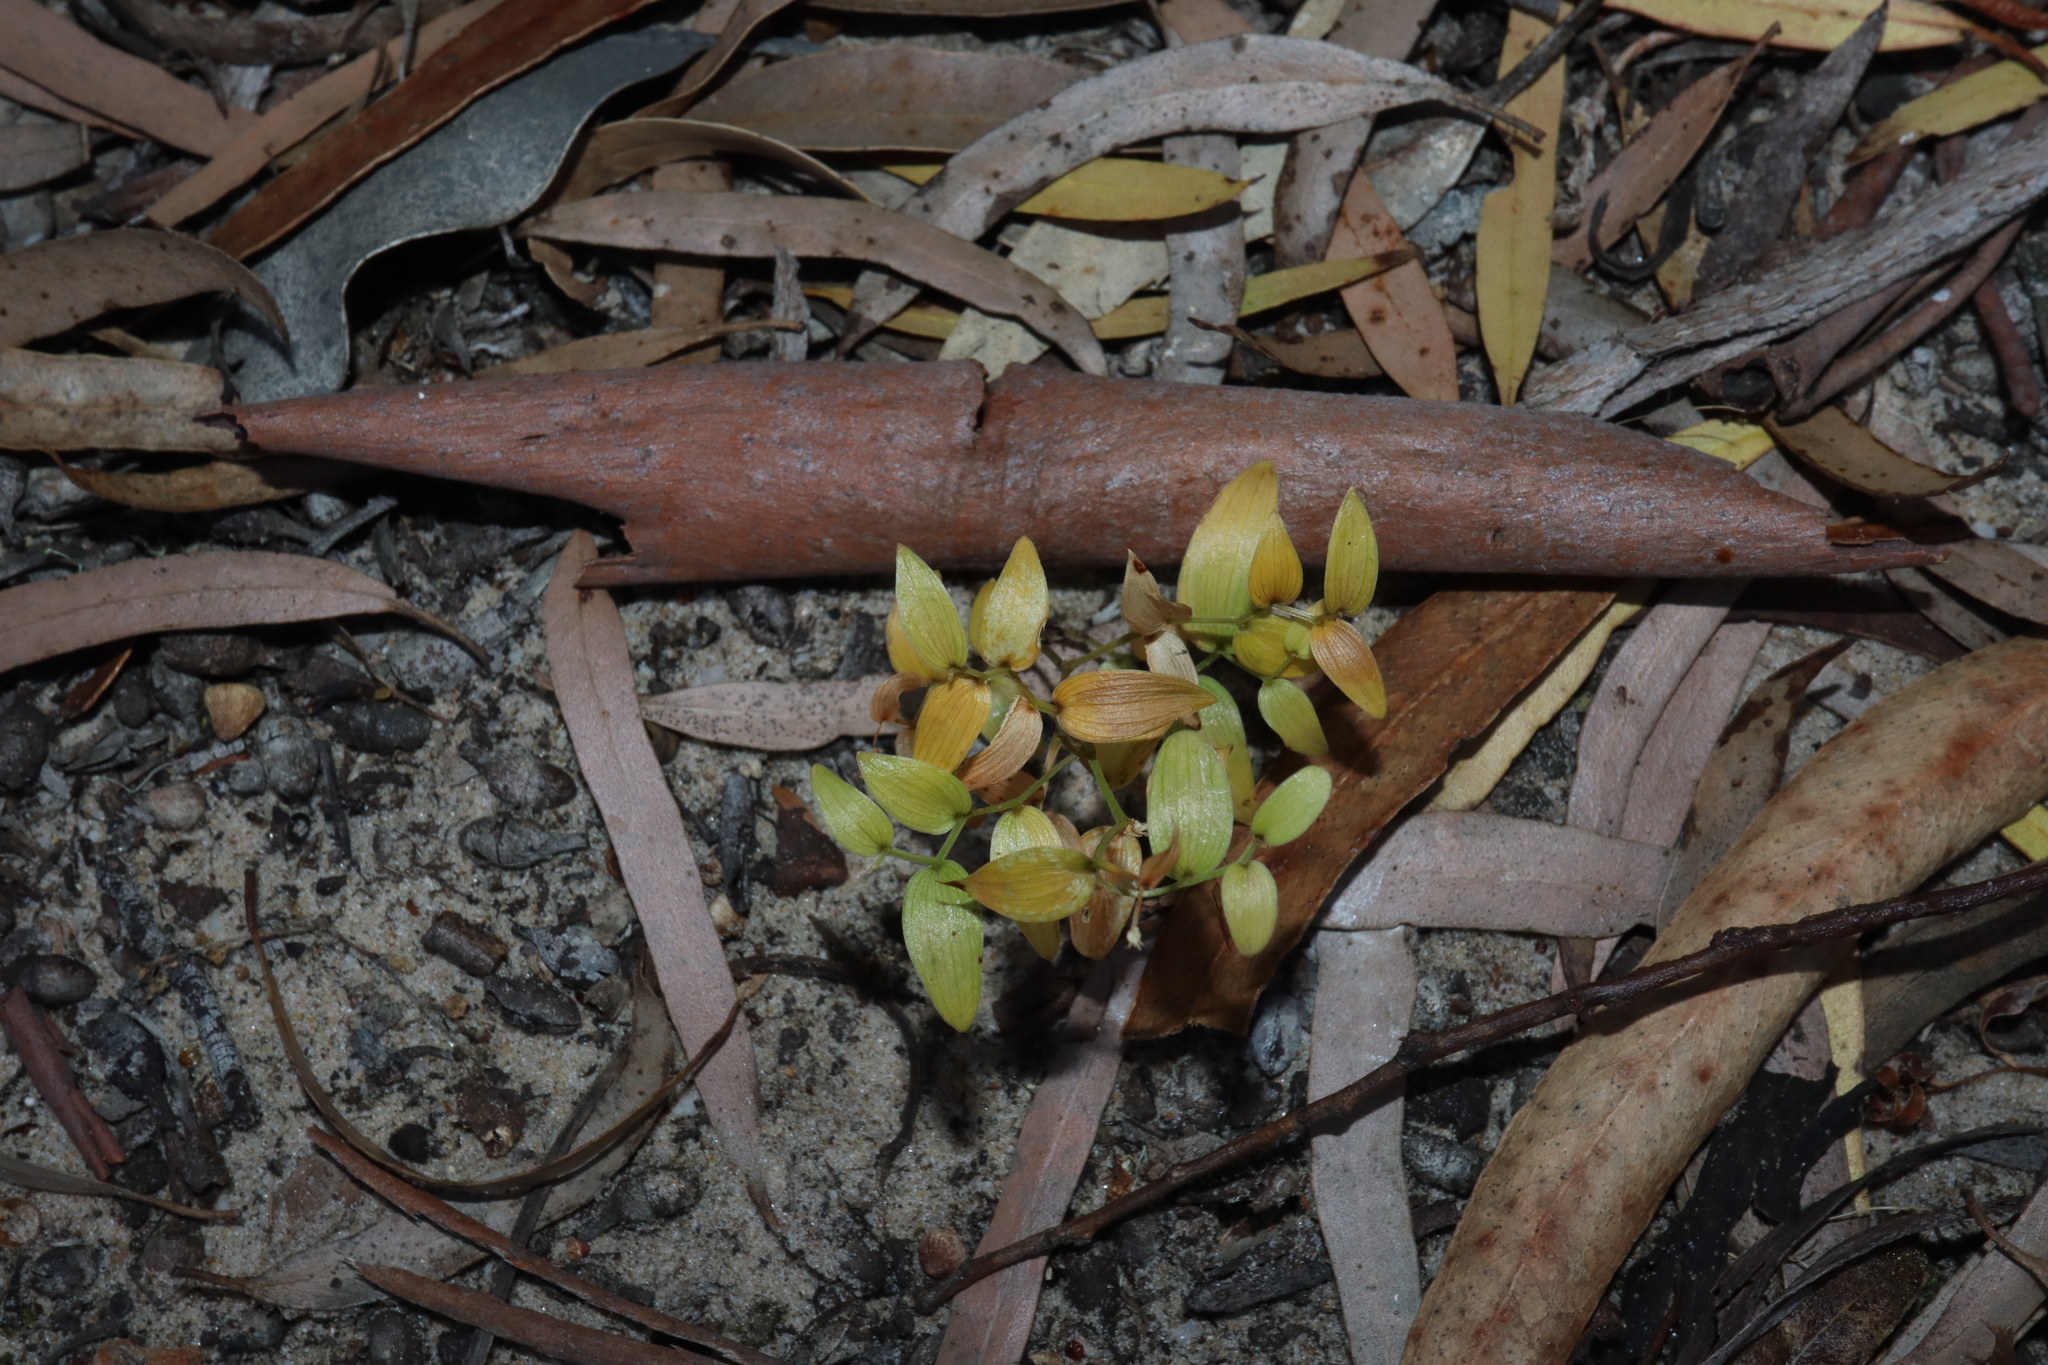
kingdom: Plantae
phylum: Tracheophyta
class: Liliopsida
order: Asparagales
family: Asparagaceae
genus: Asparagus
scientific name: Asparagus asparagoides
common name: African asparagus fern
